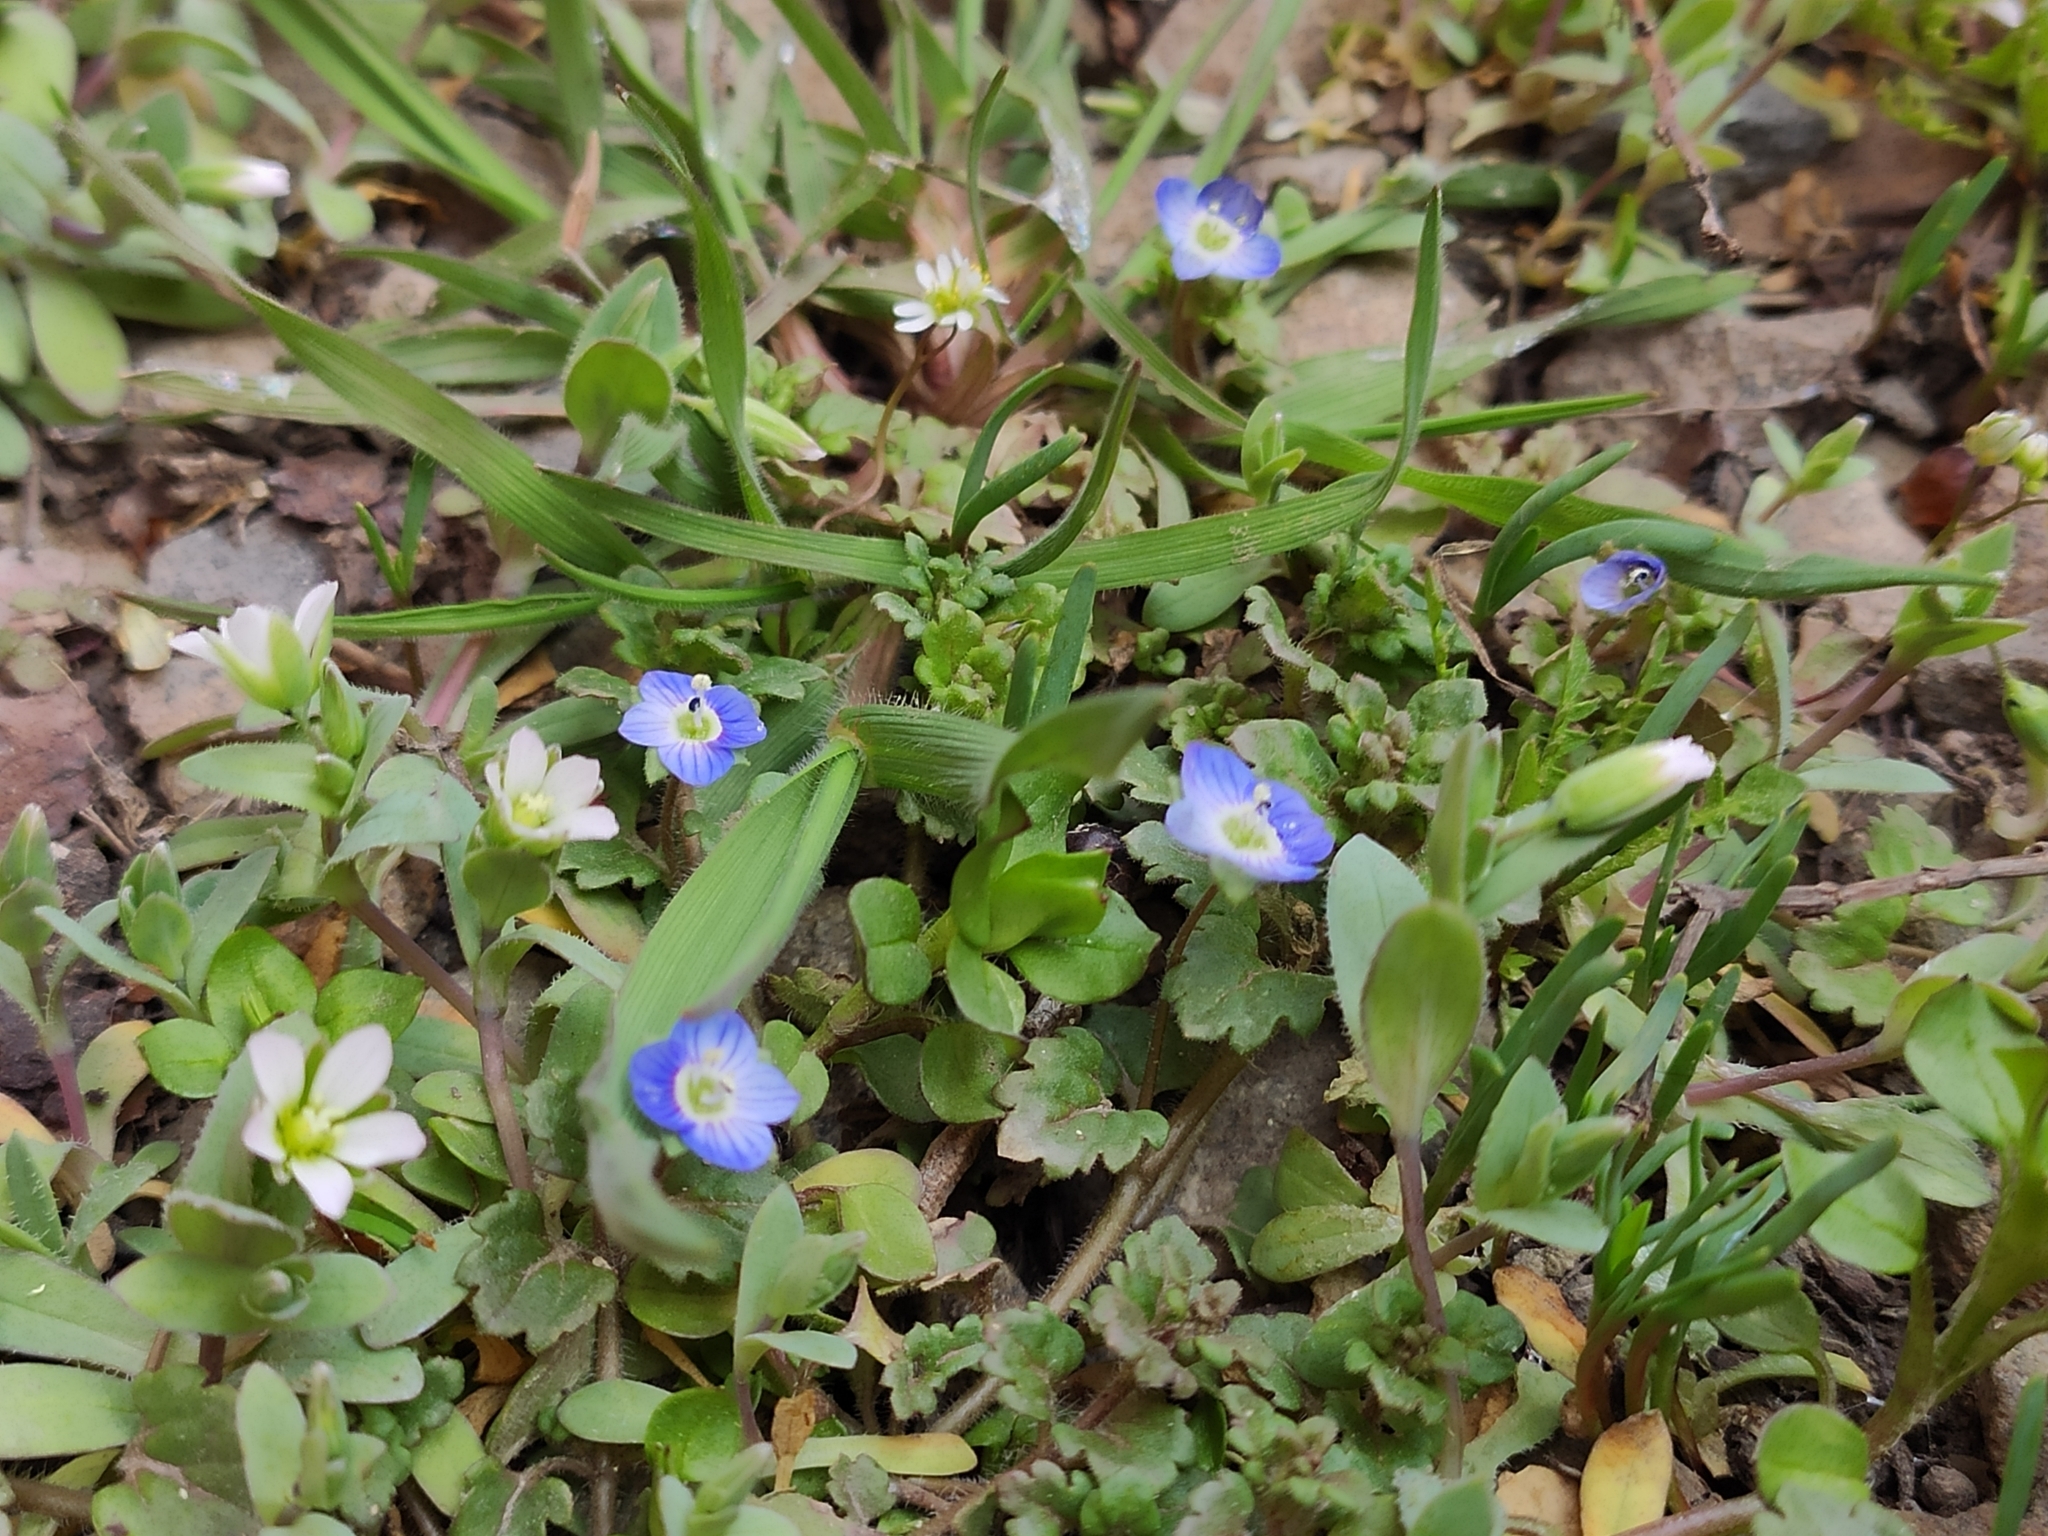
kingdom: Plantae
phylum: Tracheophyta
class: Magnoliopsida
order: Lamiales
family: Plantaginaceae
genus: Veronica
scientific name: Veronica persica
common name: Common field-speedwell
